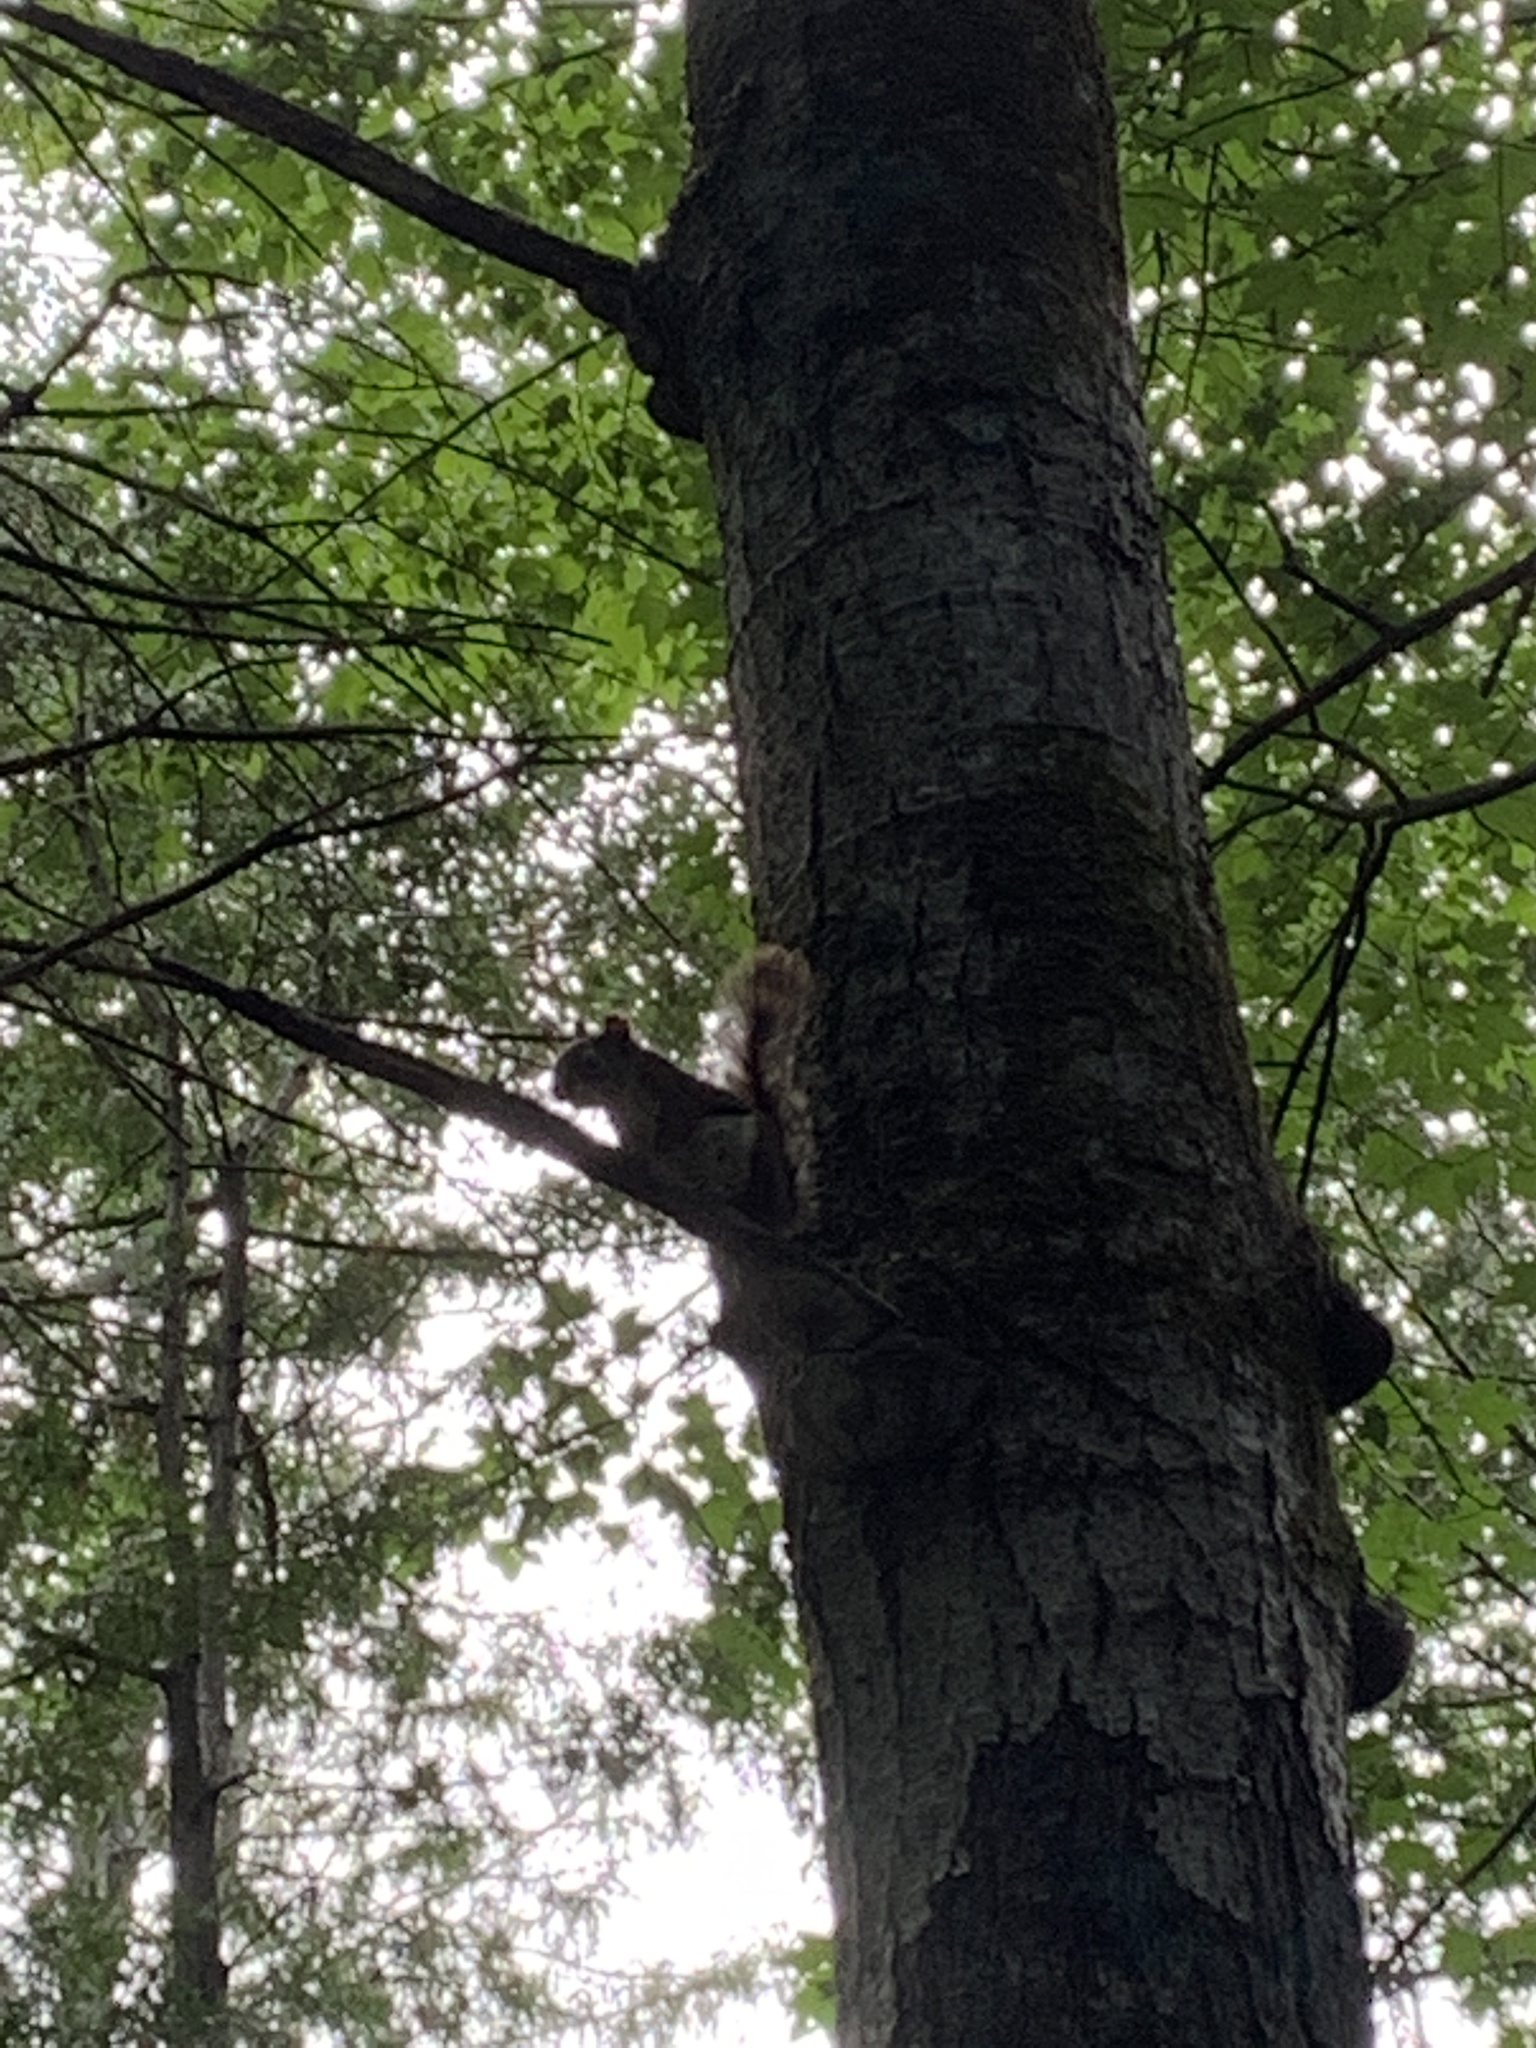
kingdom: Animalia
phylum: Chordata
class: Mammalia
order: Rodentia
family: Sciuridae
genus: Tamiasciurus
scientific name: Tamiasciurus hudsonicus
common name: Red squirrel
